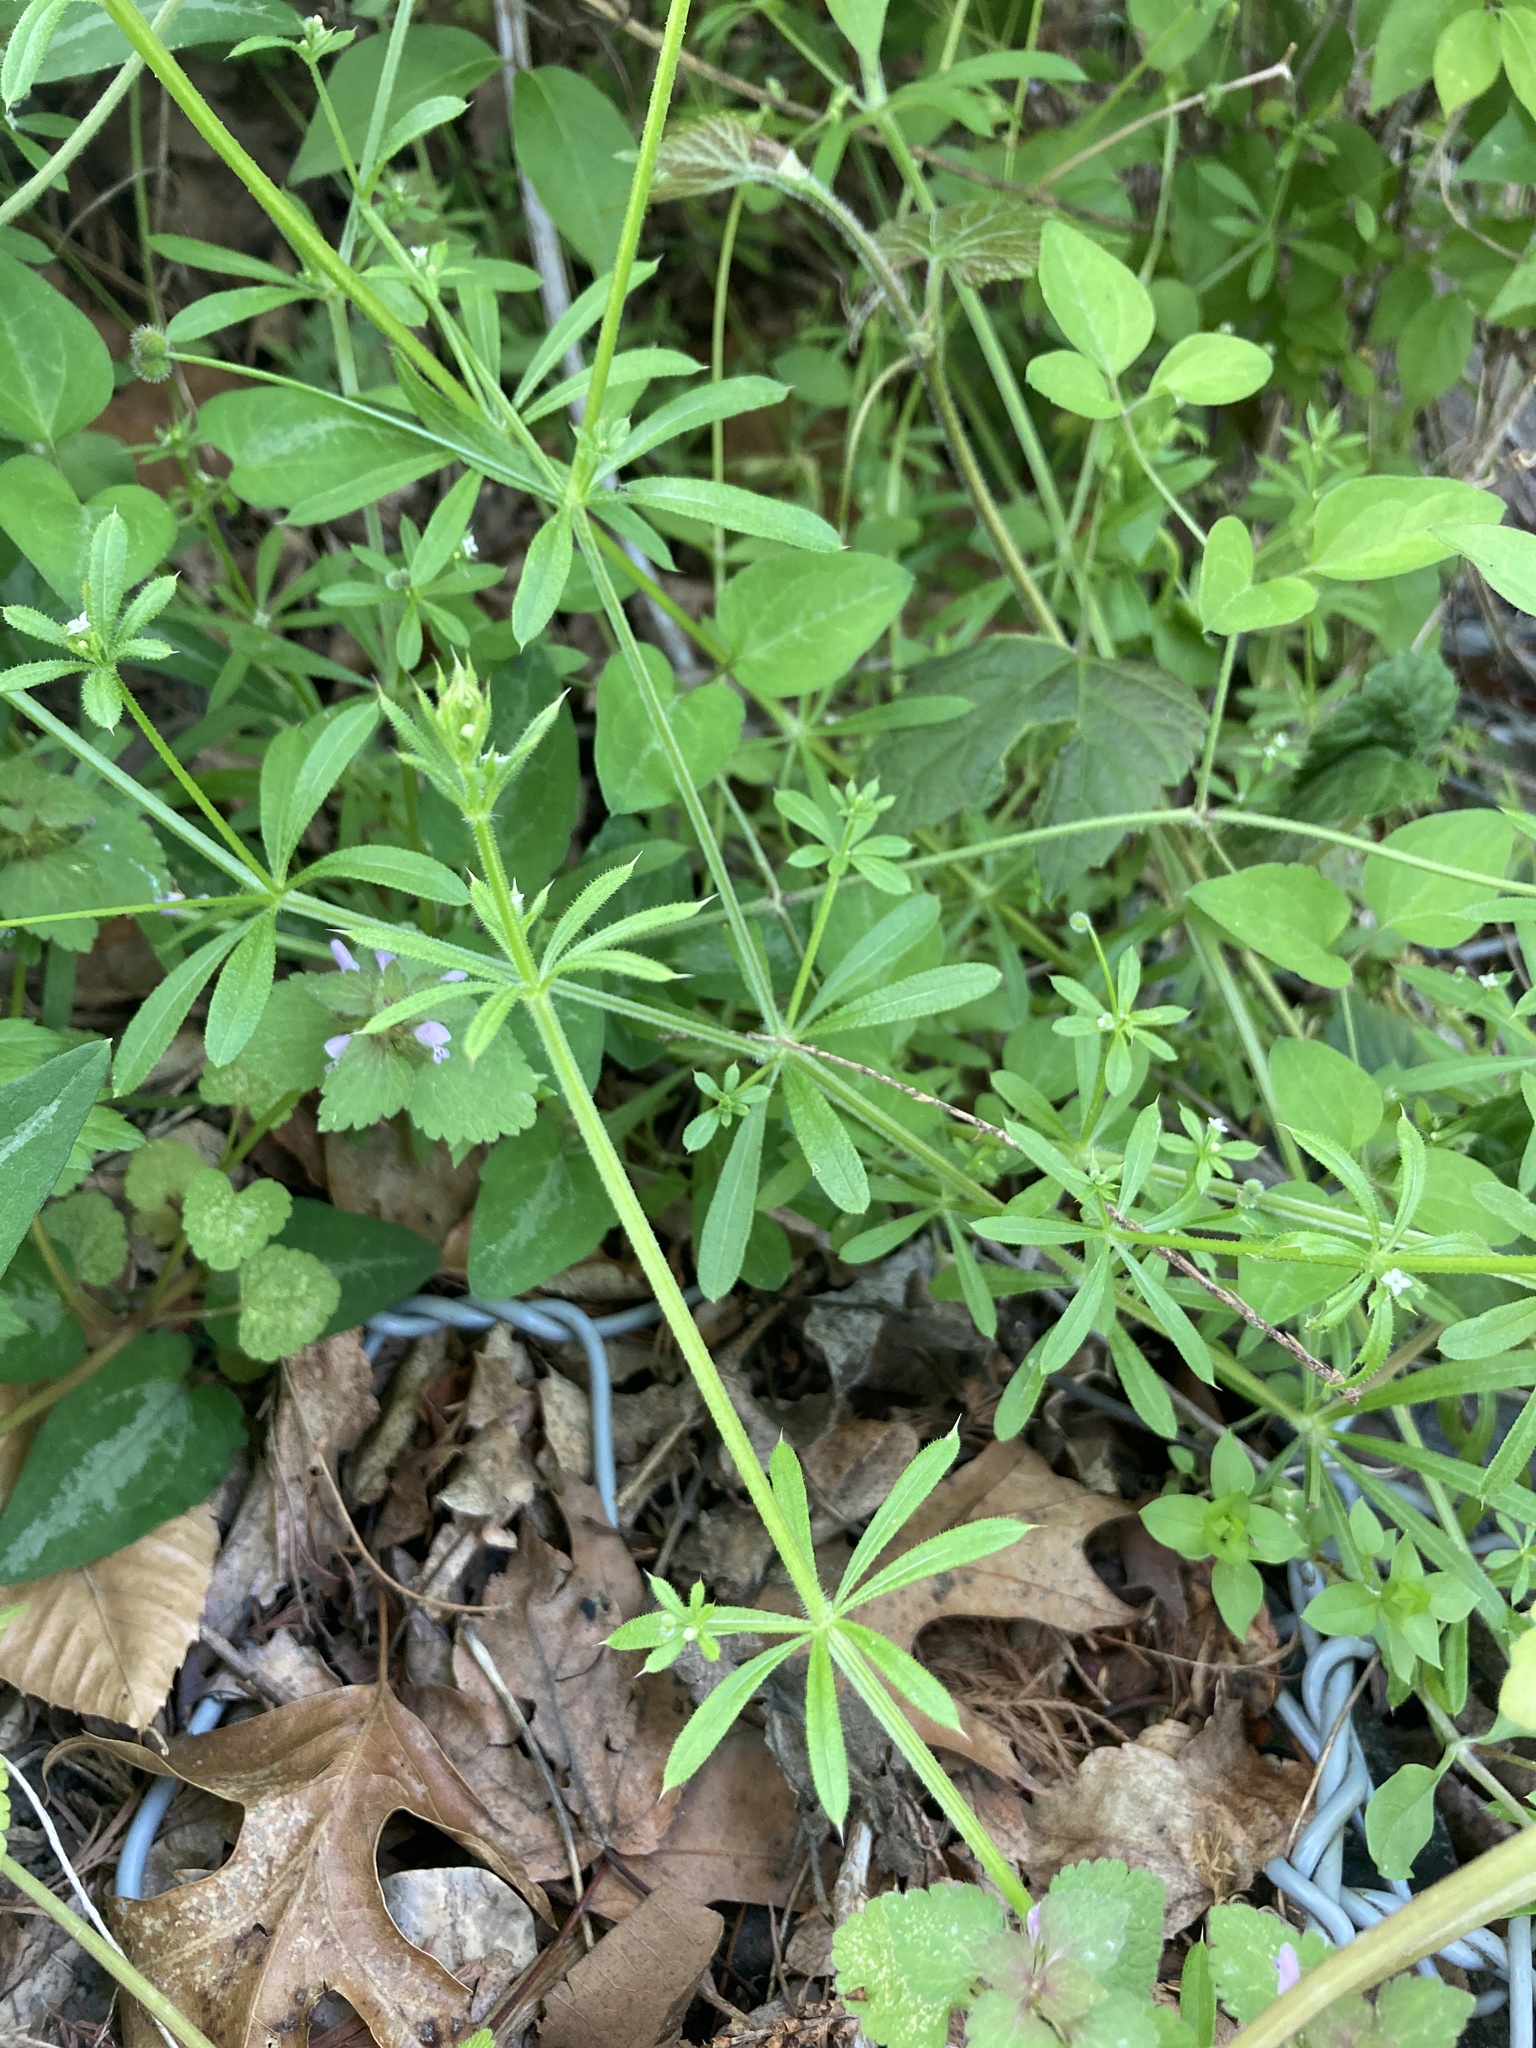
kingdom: Plantae
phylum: Tracheophyta
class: Magnoliopsida
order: Gentianales
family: Rubiaceae
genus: Galium
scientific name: Galium aparine
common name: Cleavers
